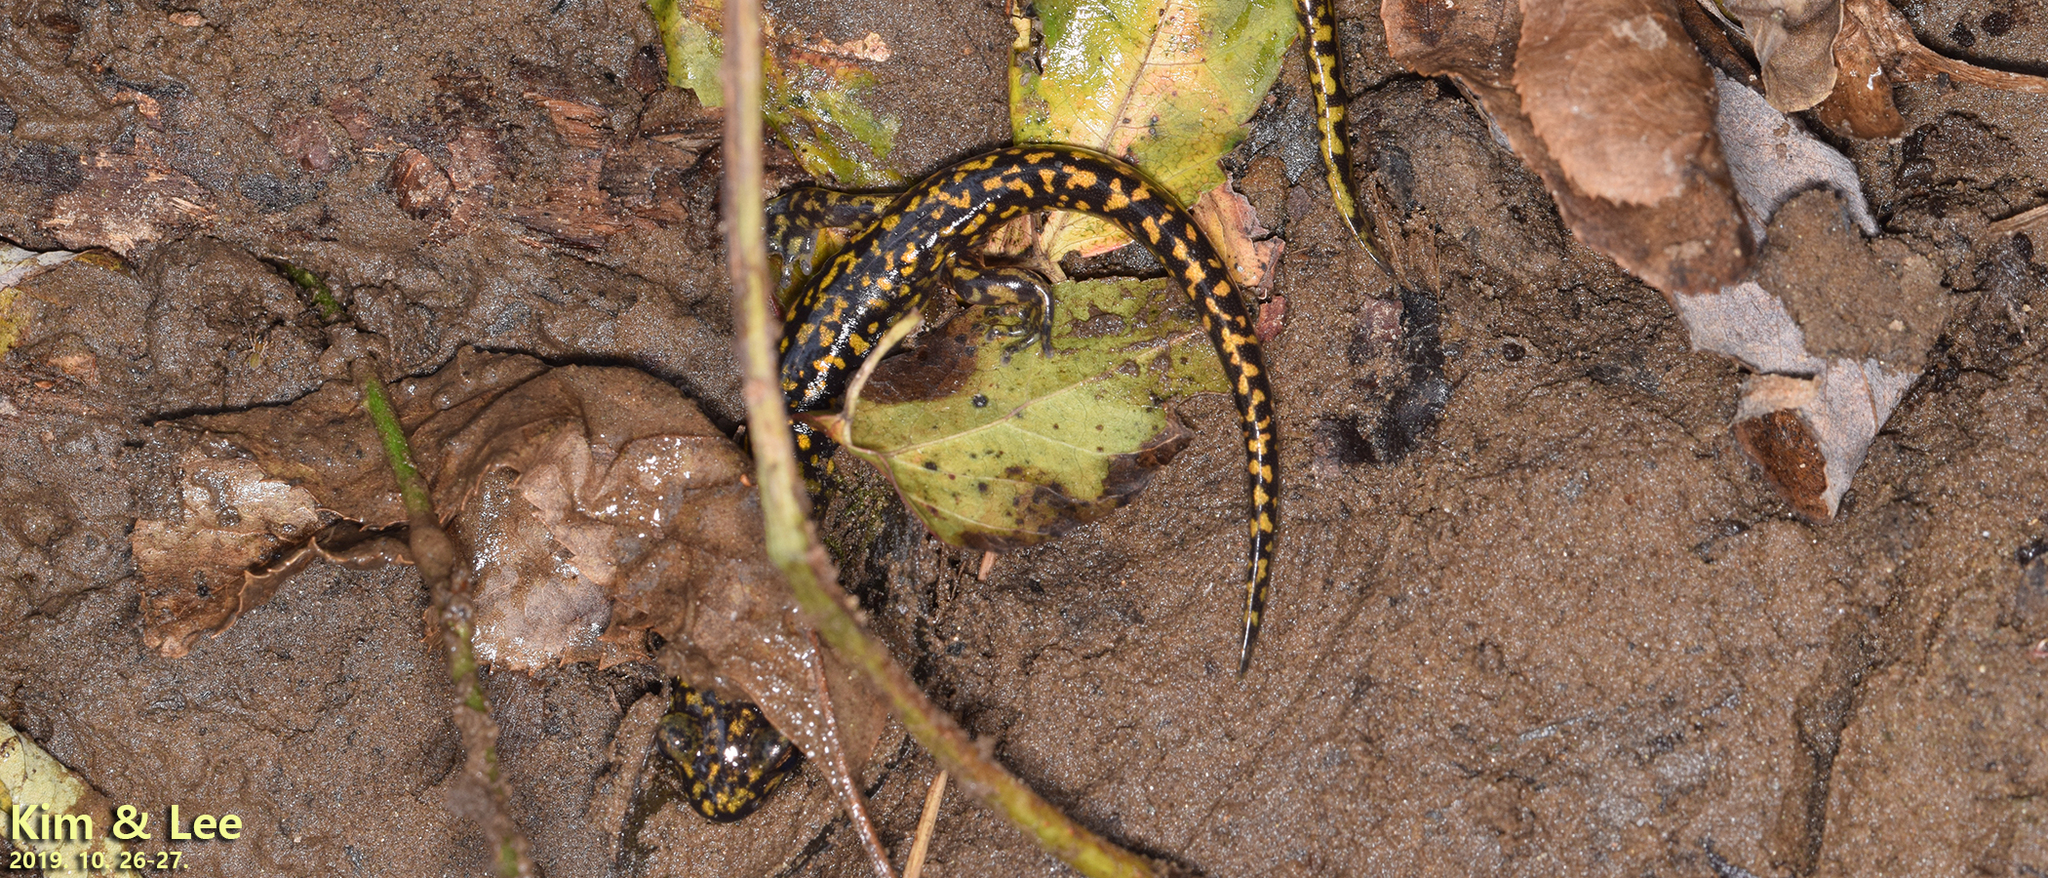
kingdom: Animalia
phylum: Chordata
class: Amphibia
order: Caudata
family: Hynobiidae
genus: Onychodactylus
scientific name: Onychodactylus koreanus
